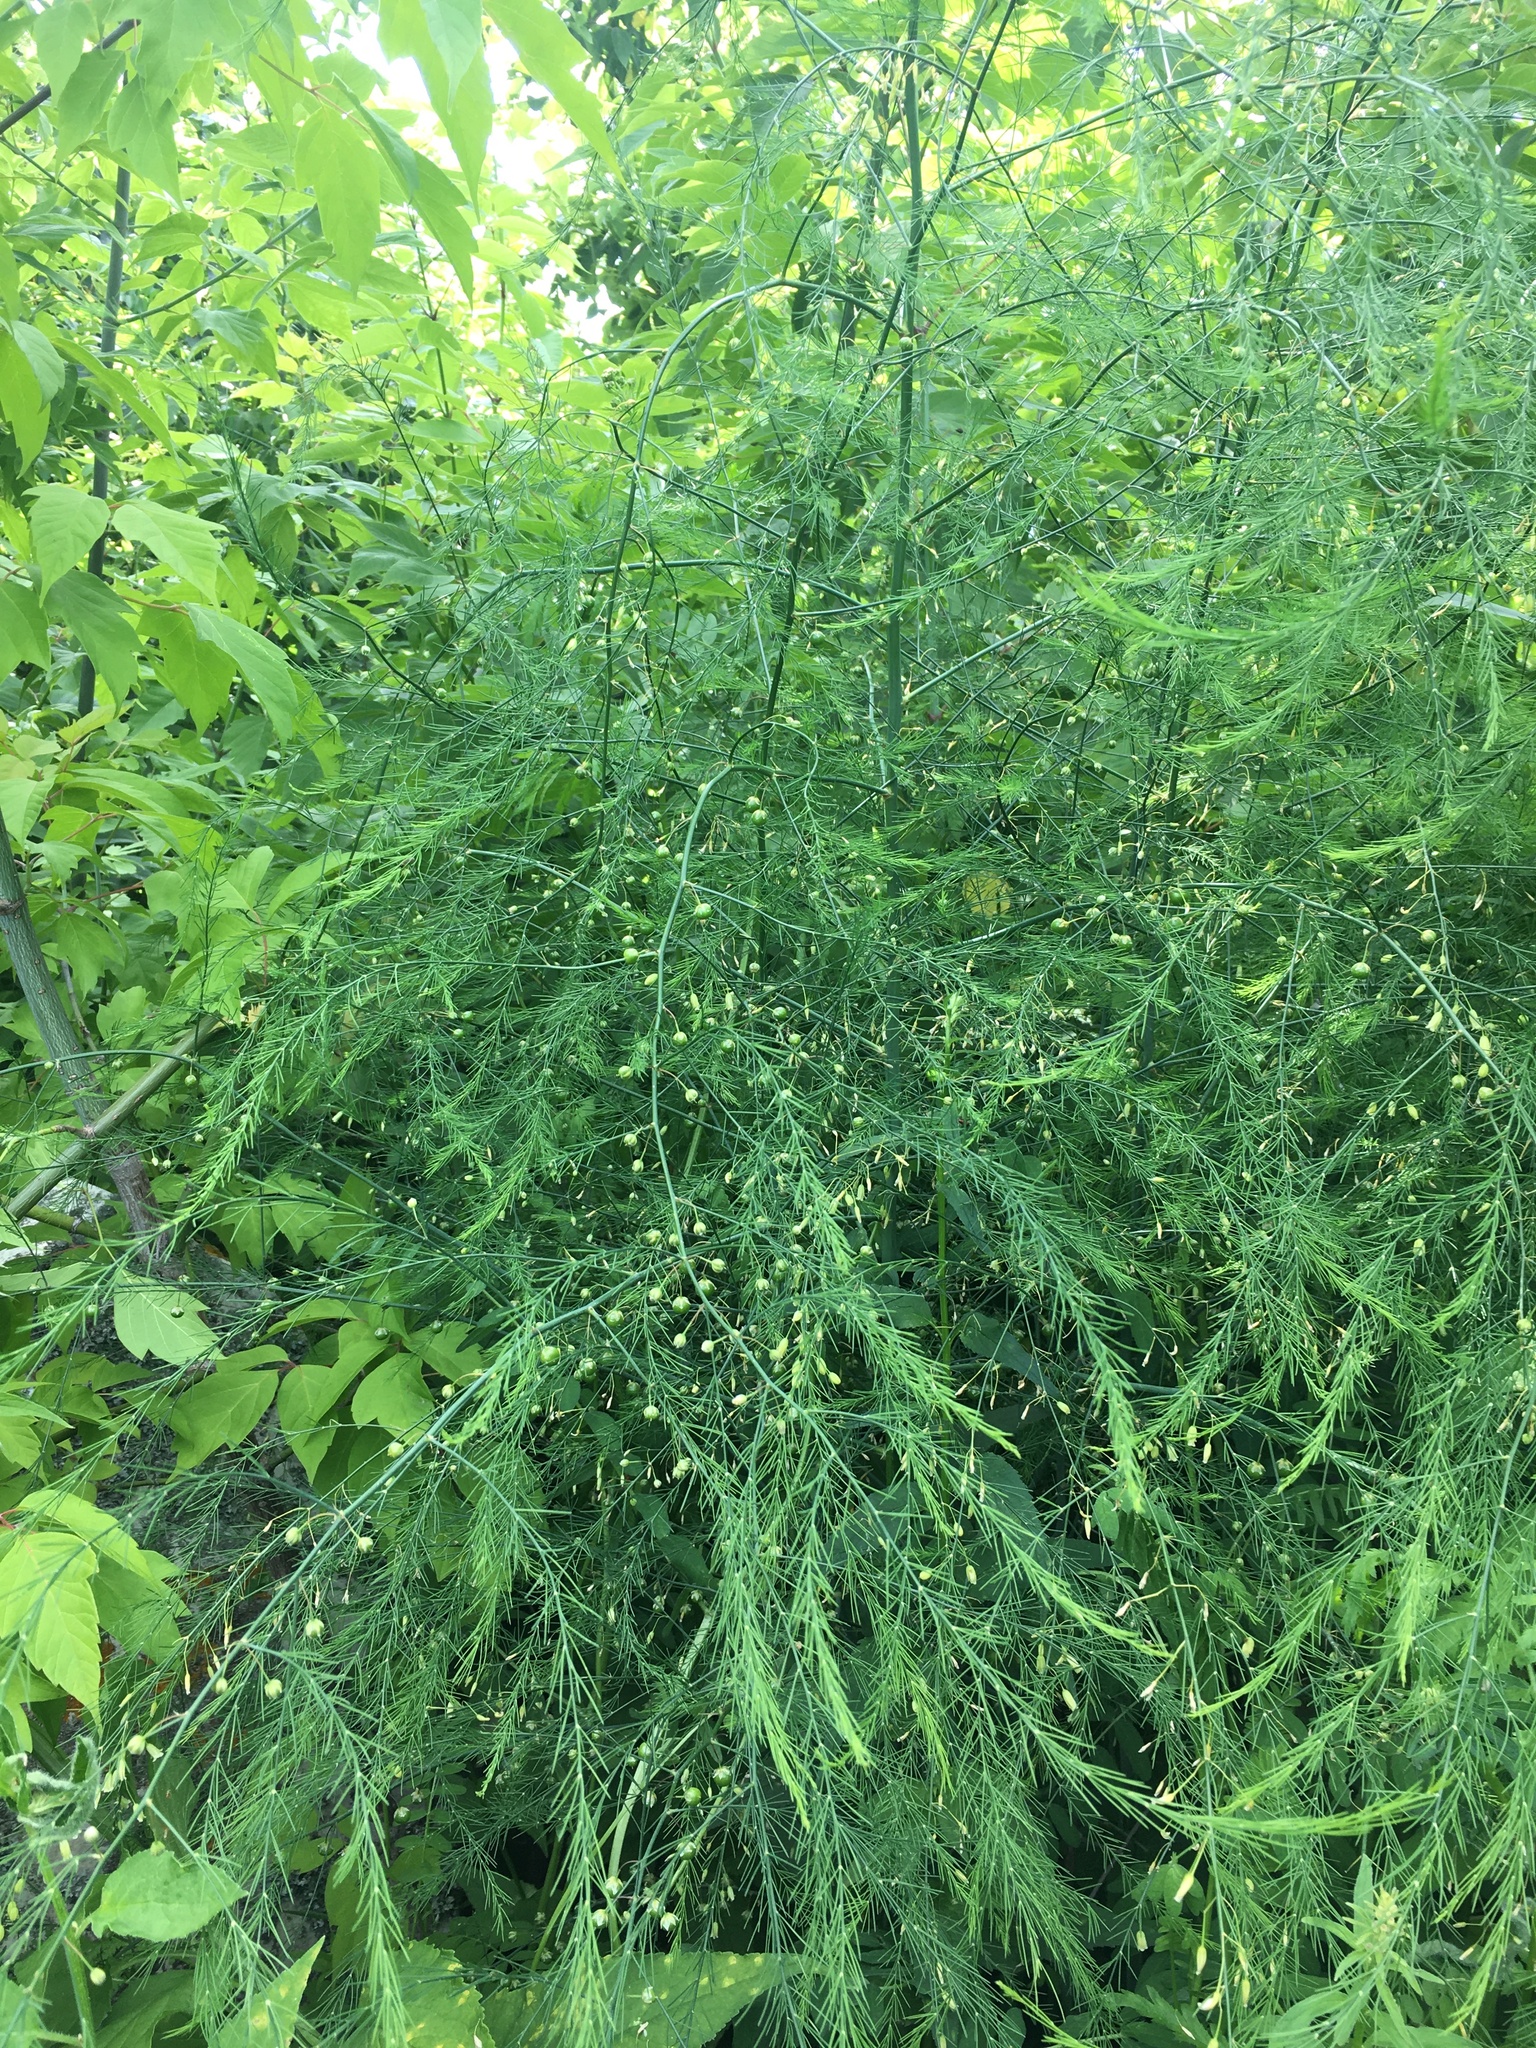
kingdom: Plantae
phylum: Tracheophyta
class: Liliopsida
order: Asparagales
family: Asparagaceae
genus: Asparagus
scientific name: Asparagus officinalis
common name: Garden asparagus
